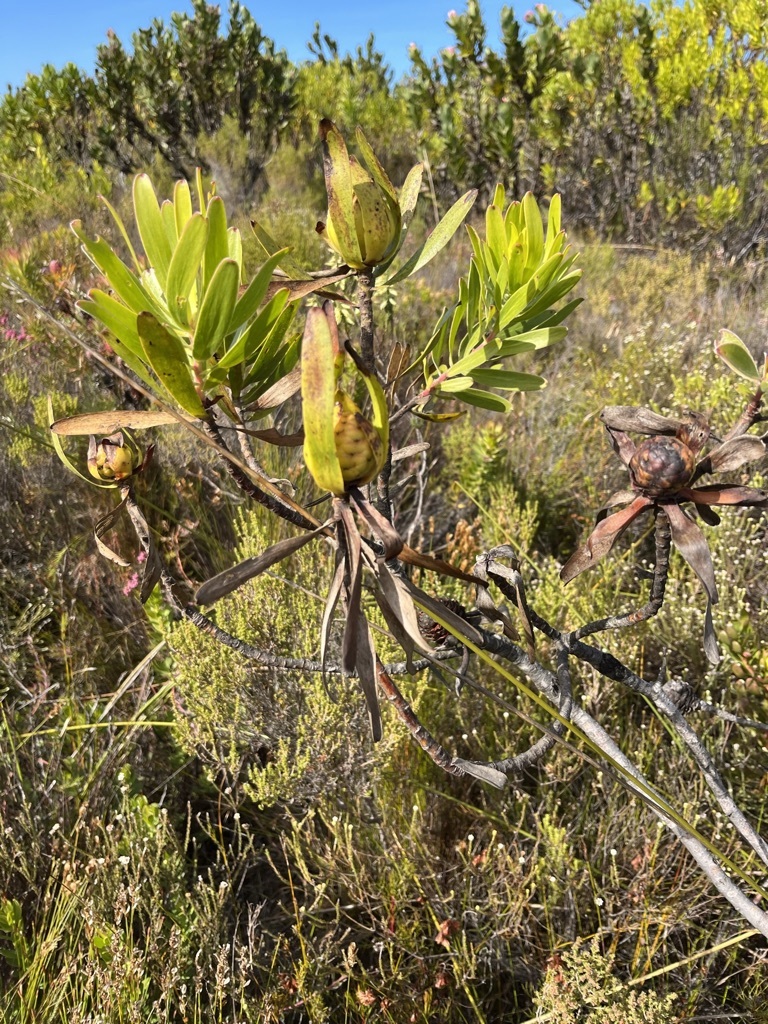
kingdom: Plantae
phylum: Tracheophyta
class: Magnoliopsida
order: Proteales
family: Proteaceae
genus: Leucadendron
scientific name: Leucadendron laureolum
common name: Golden sunshinebush
